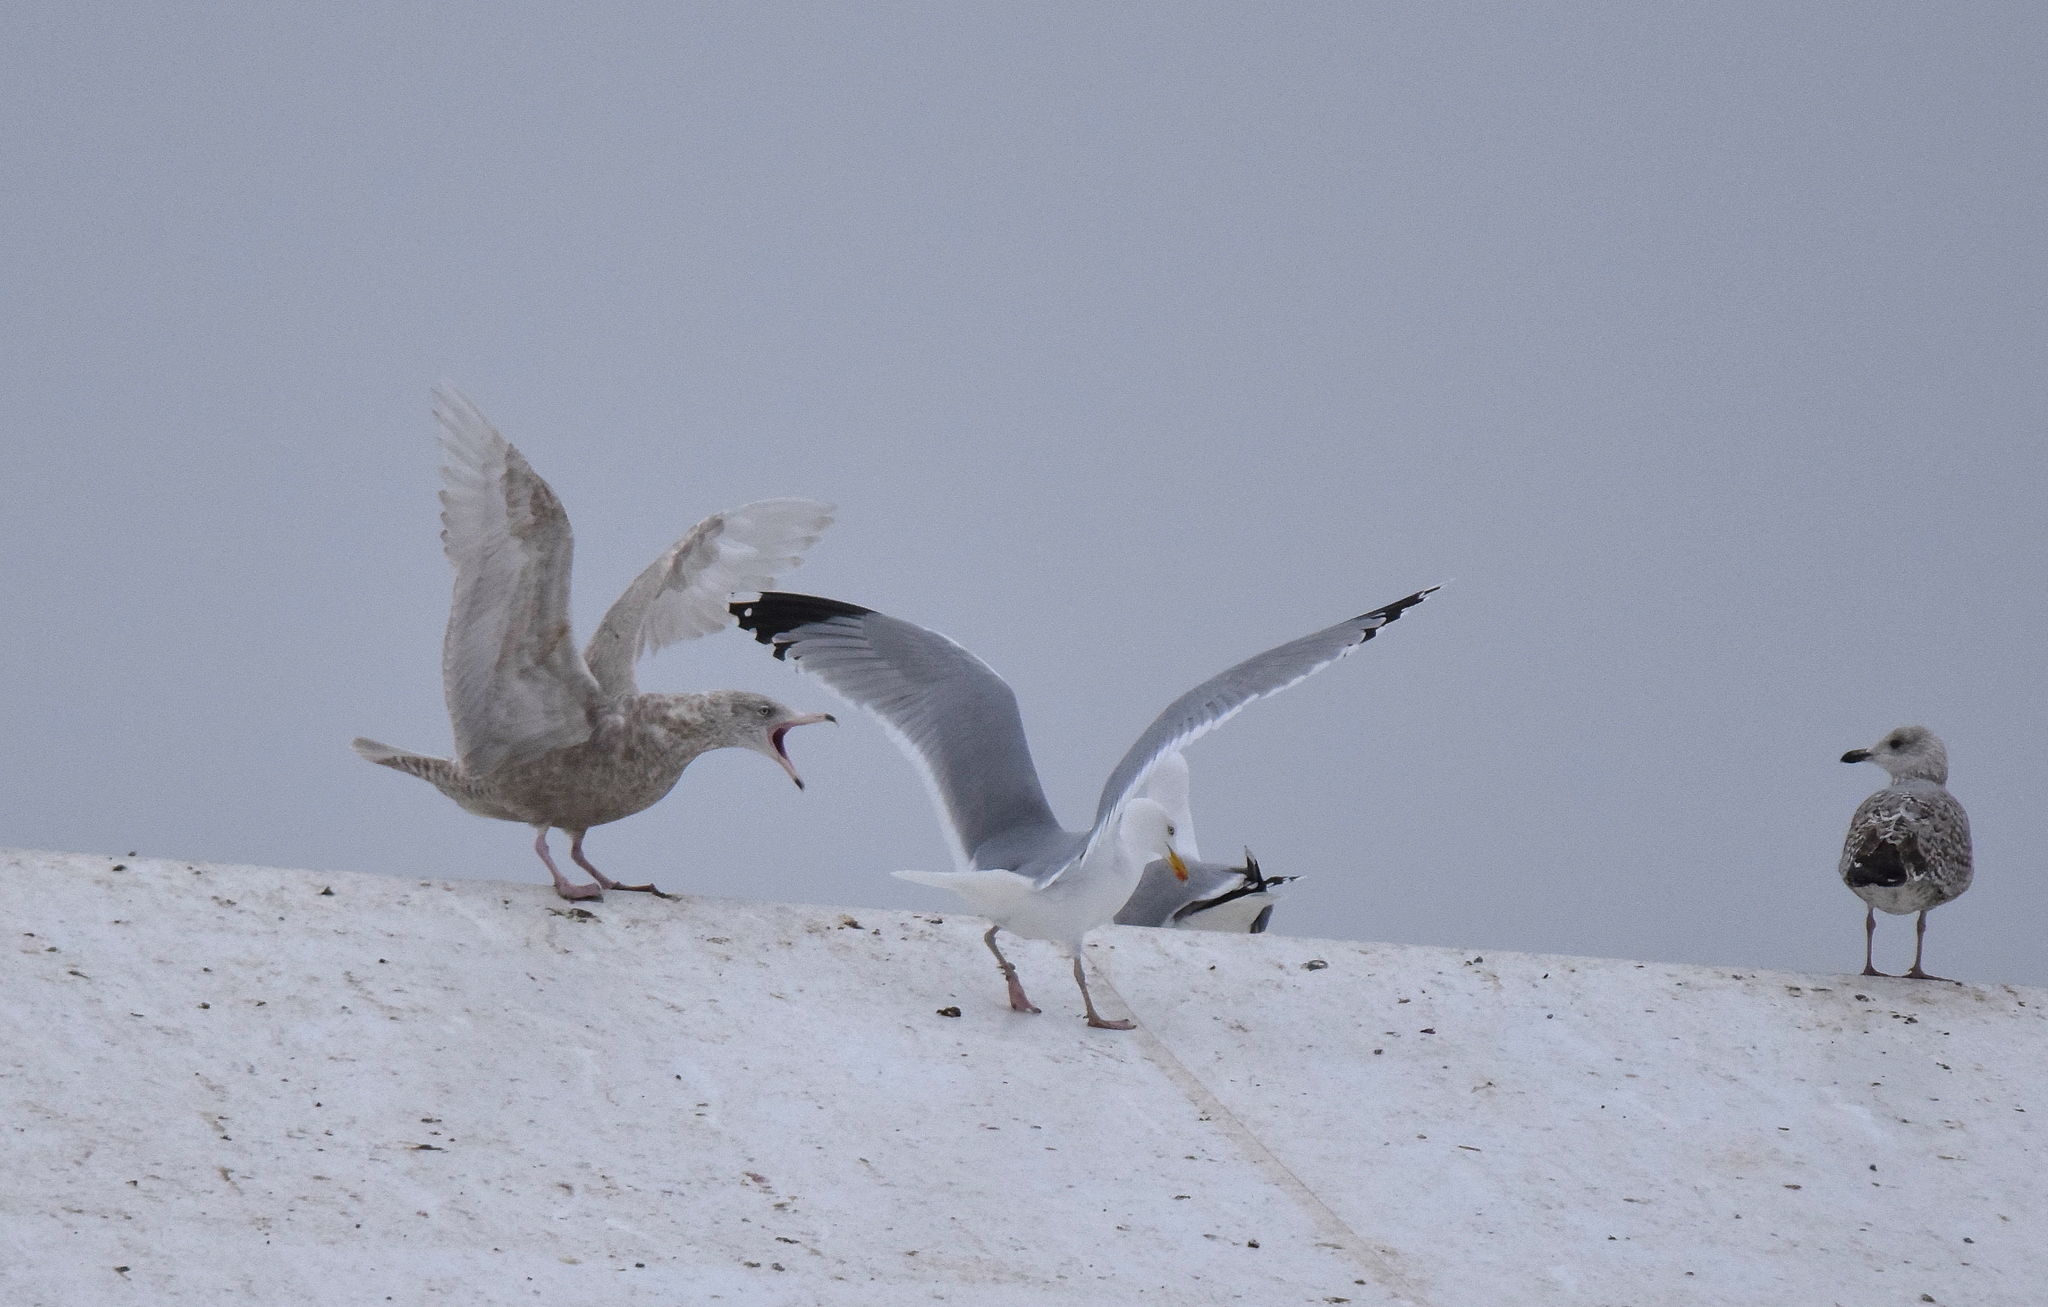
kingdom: Animalia
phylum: Chordata
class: Aves
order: Charadriiformes
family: Laridae
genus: Larus
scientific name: Larus hyperboreus
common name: Glaucous gull
